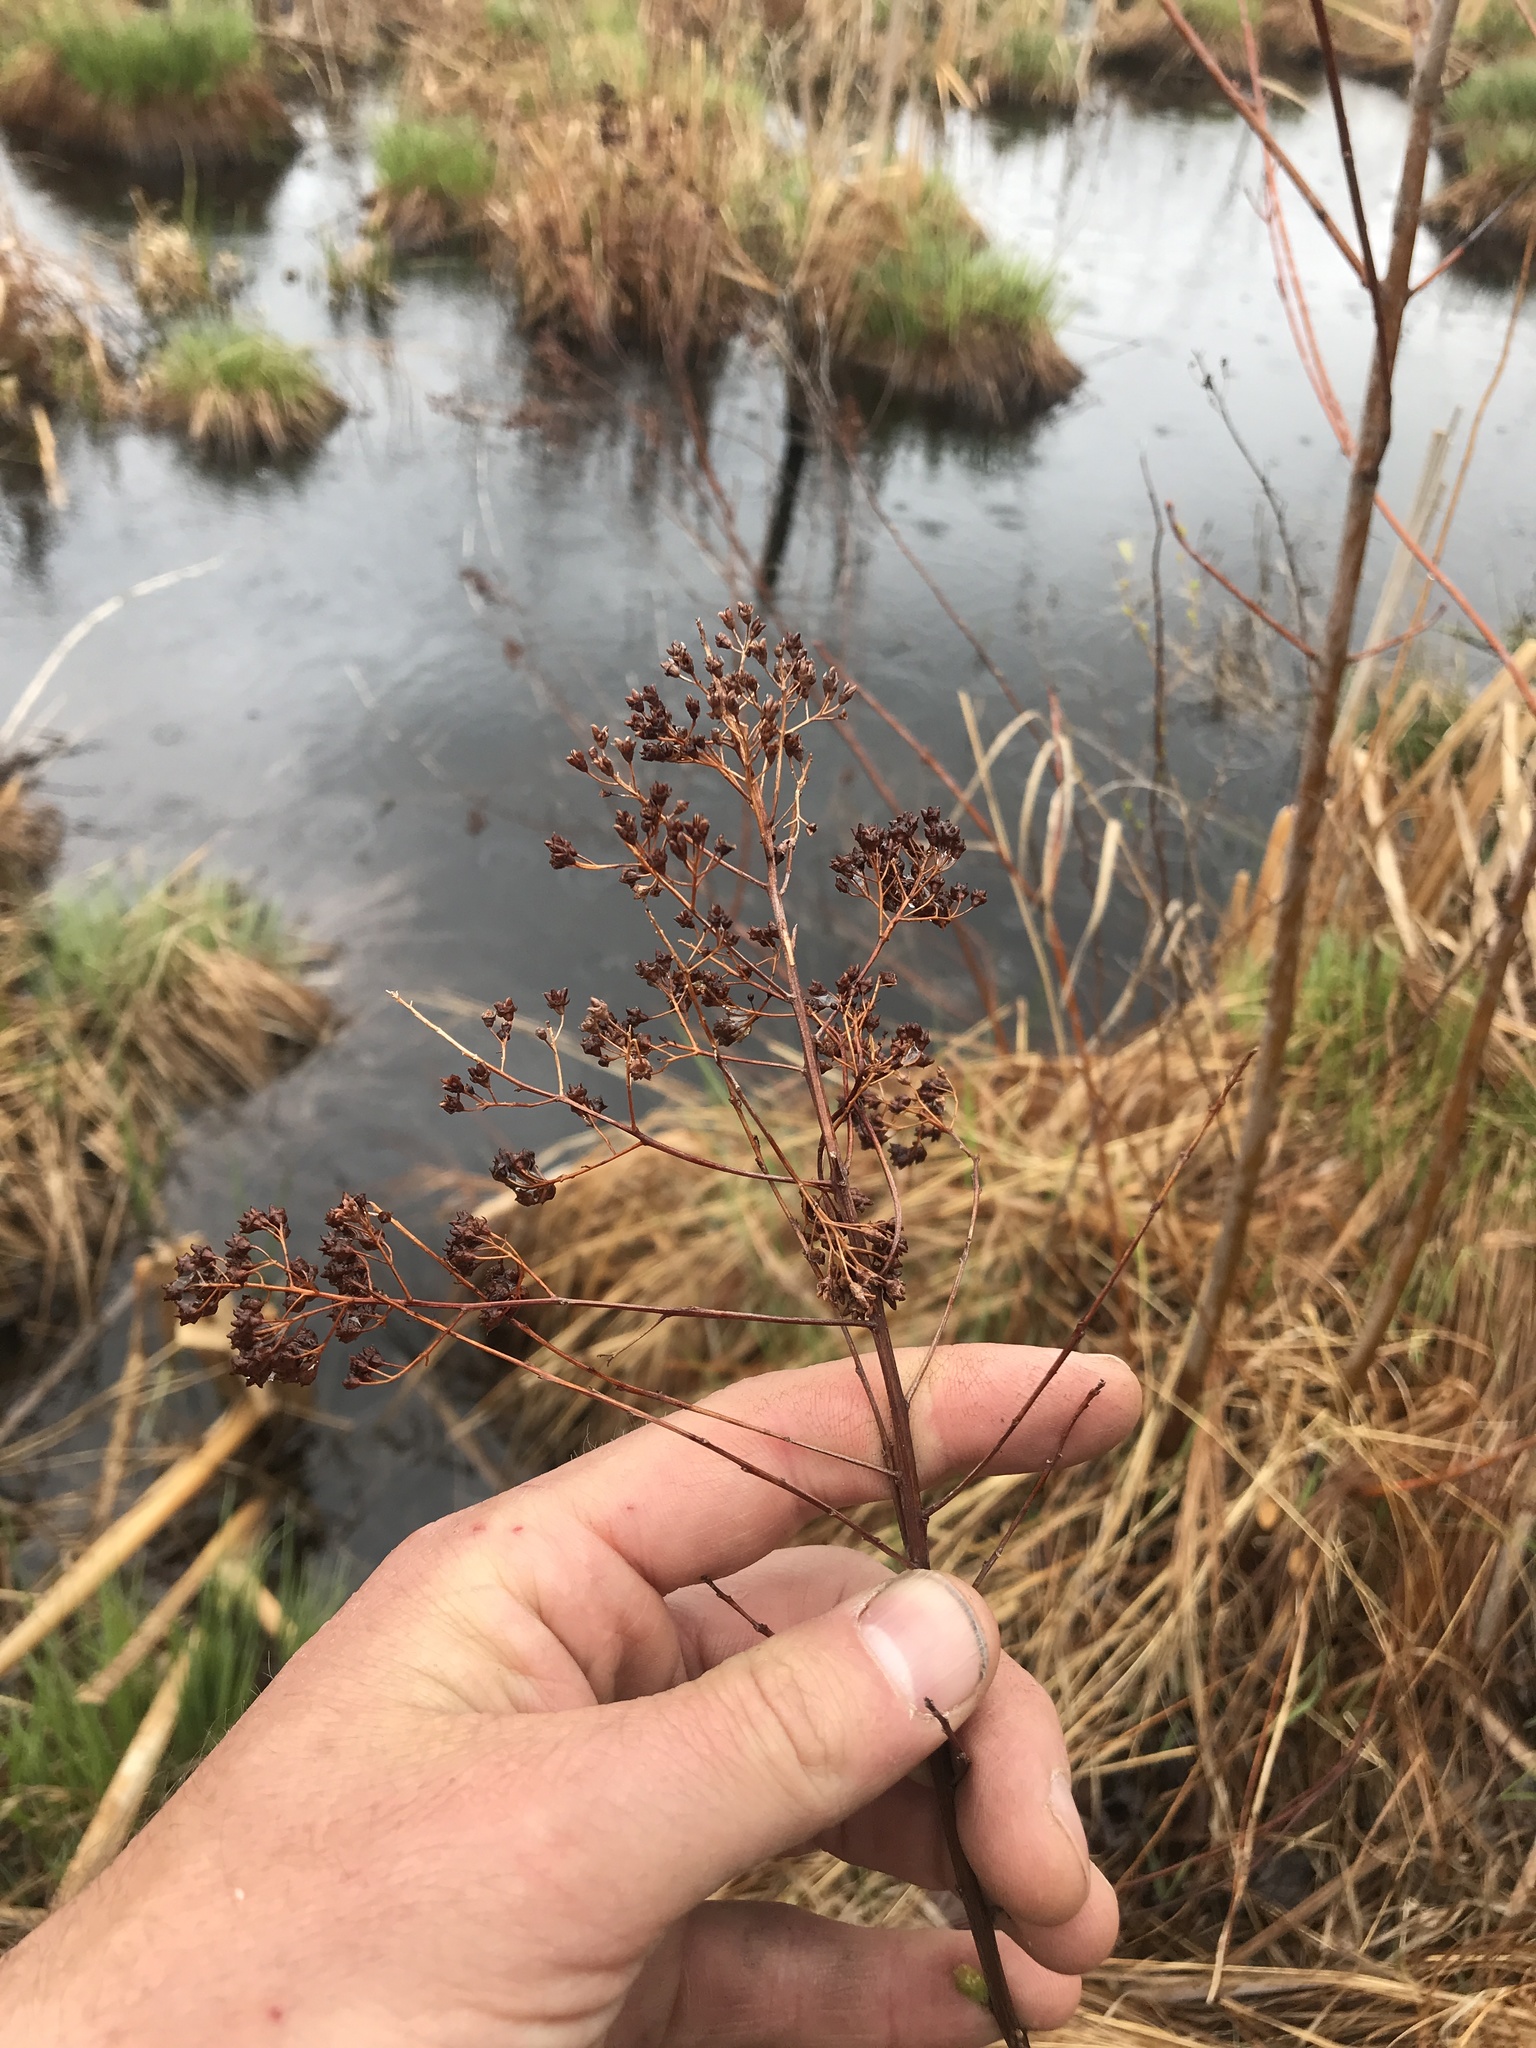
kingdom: Plantae
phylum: Tracheophyta
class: Magnoliopsida
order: Rosales
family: Rosaceae
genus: Spiraea
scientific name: Spiraea alba
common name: Pale bridewort
